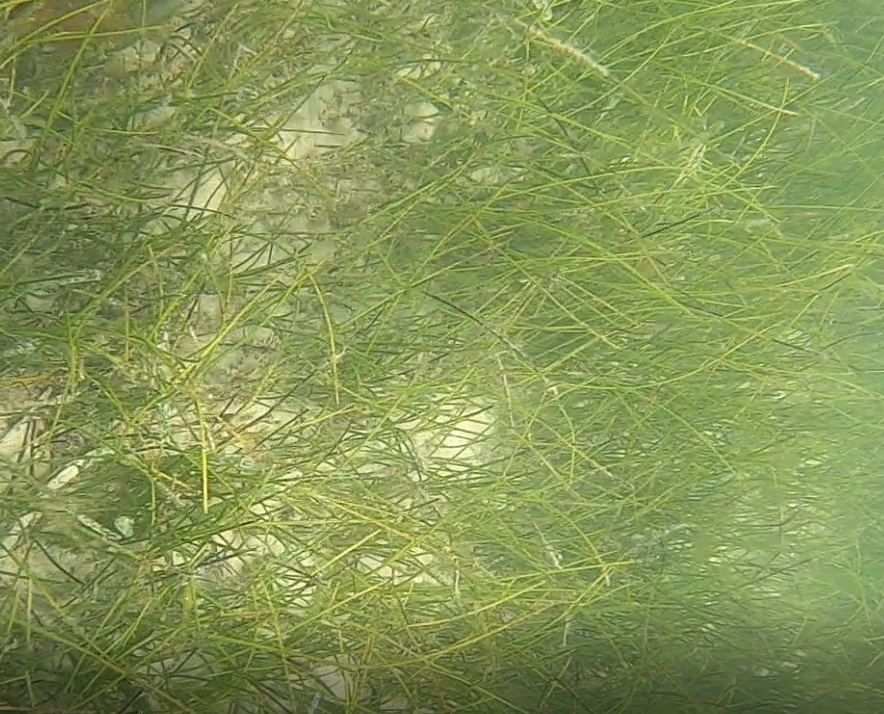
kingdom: Plantae
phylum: Tracheophyta
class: Liliopsida
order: Alismatales
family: Cymodoceaceae
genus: Syringodium
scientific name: Syringodium filiforme
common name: Manatee grass
